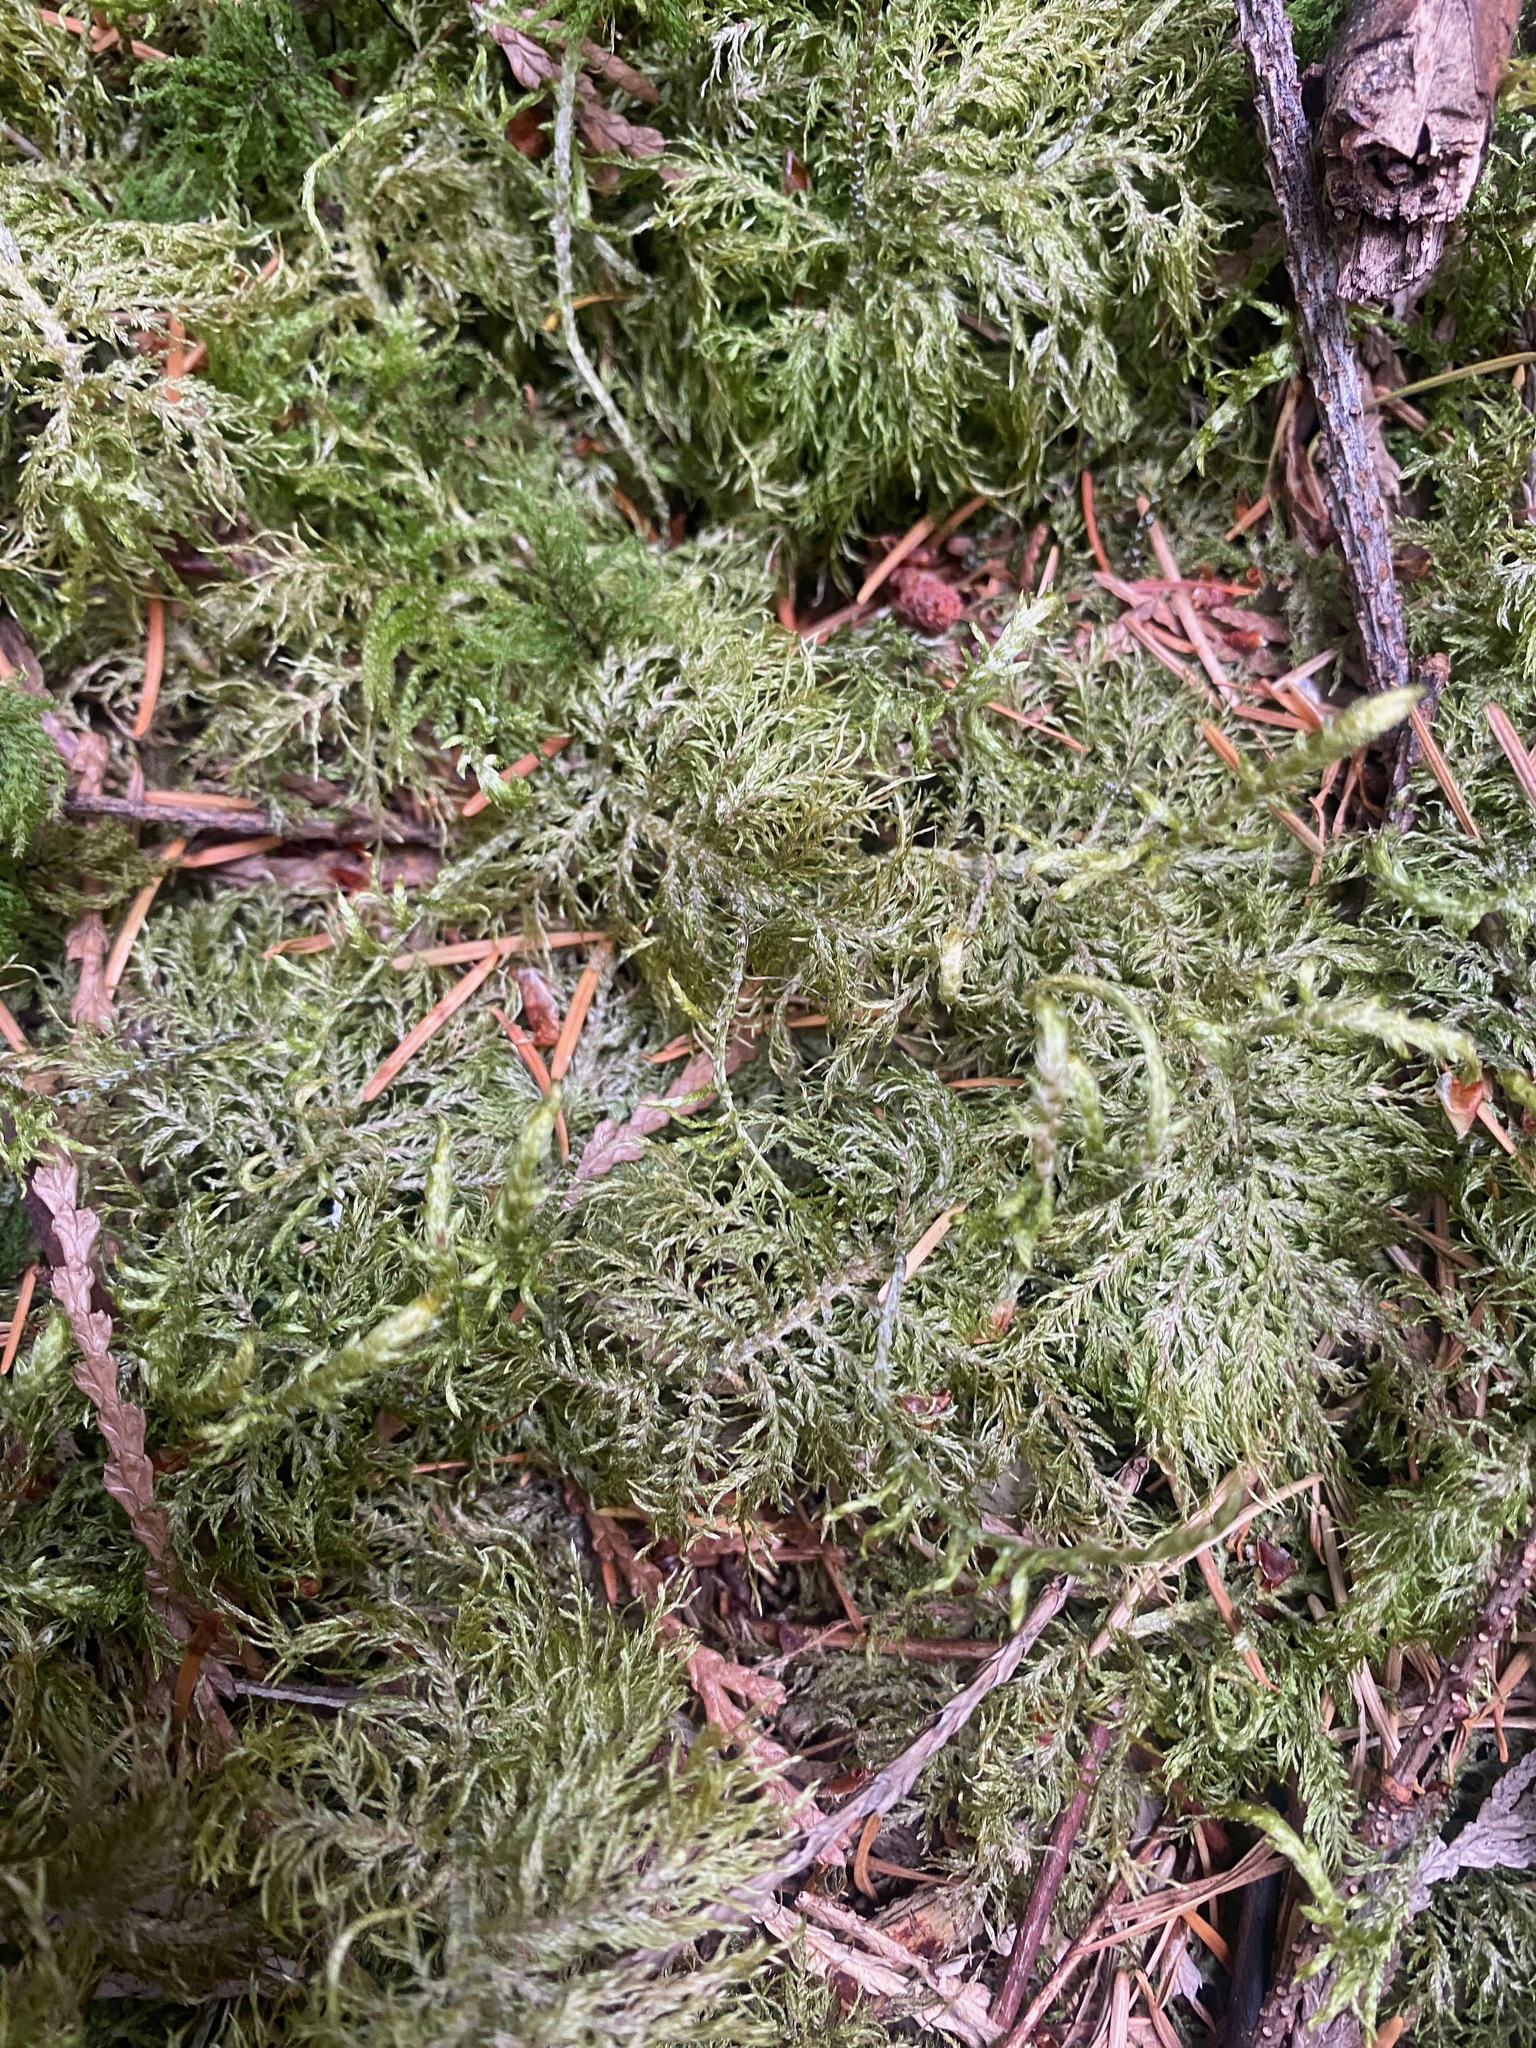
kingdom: Plantae
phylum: Bryophyta
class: Bryopsida
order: Hypnales
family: Hylocomiaceae
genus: Hylocomium
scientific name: Hylocomium splendens
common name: Stairstep moss
